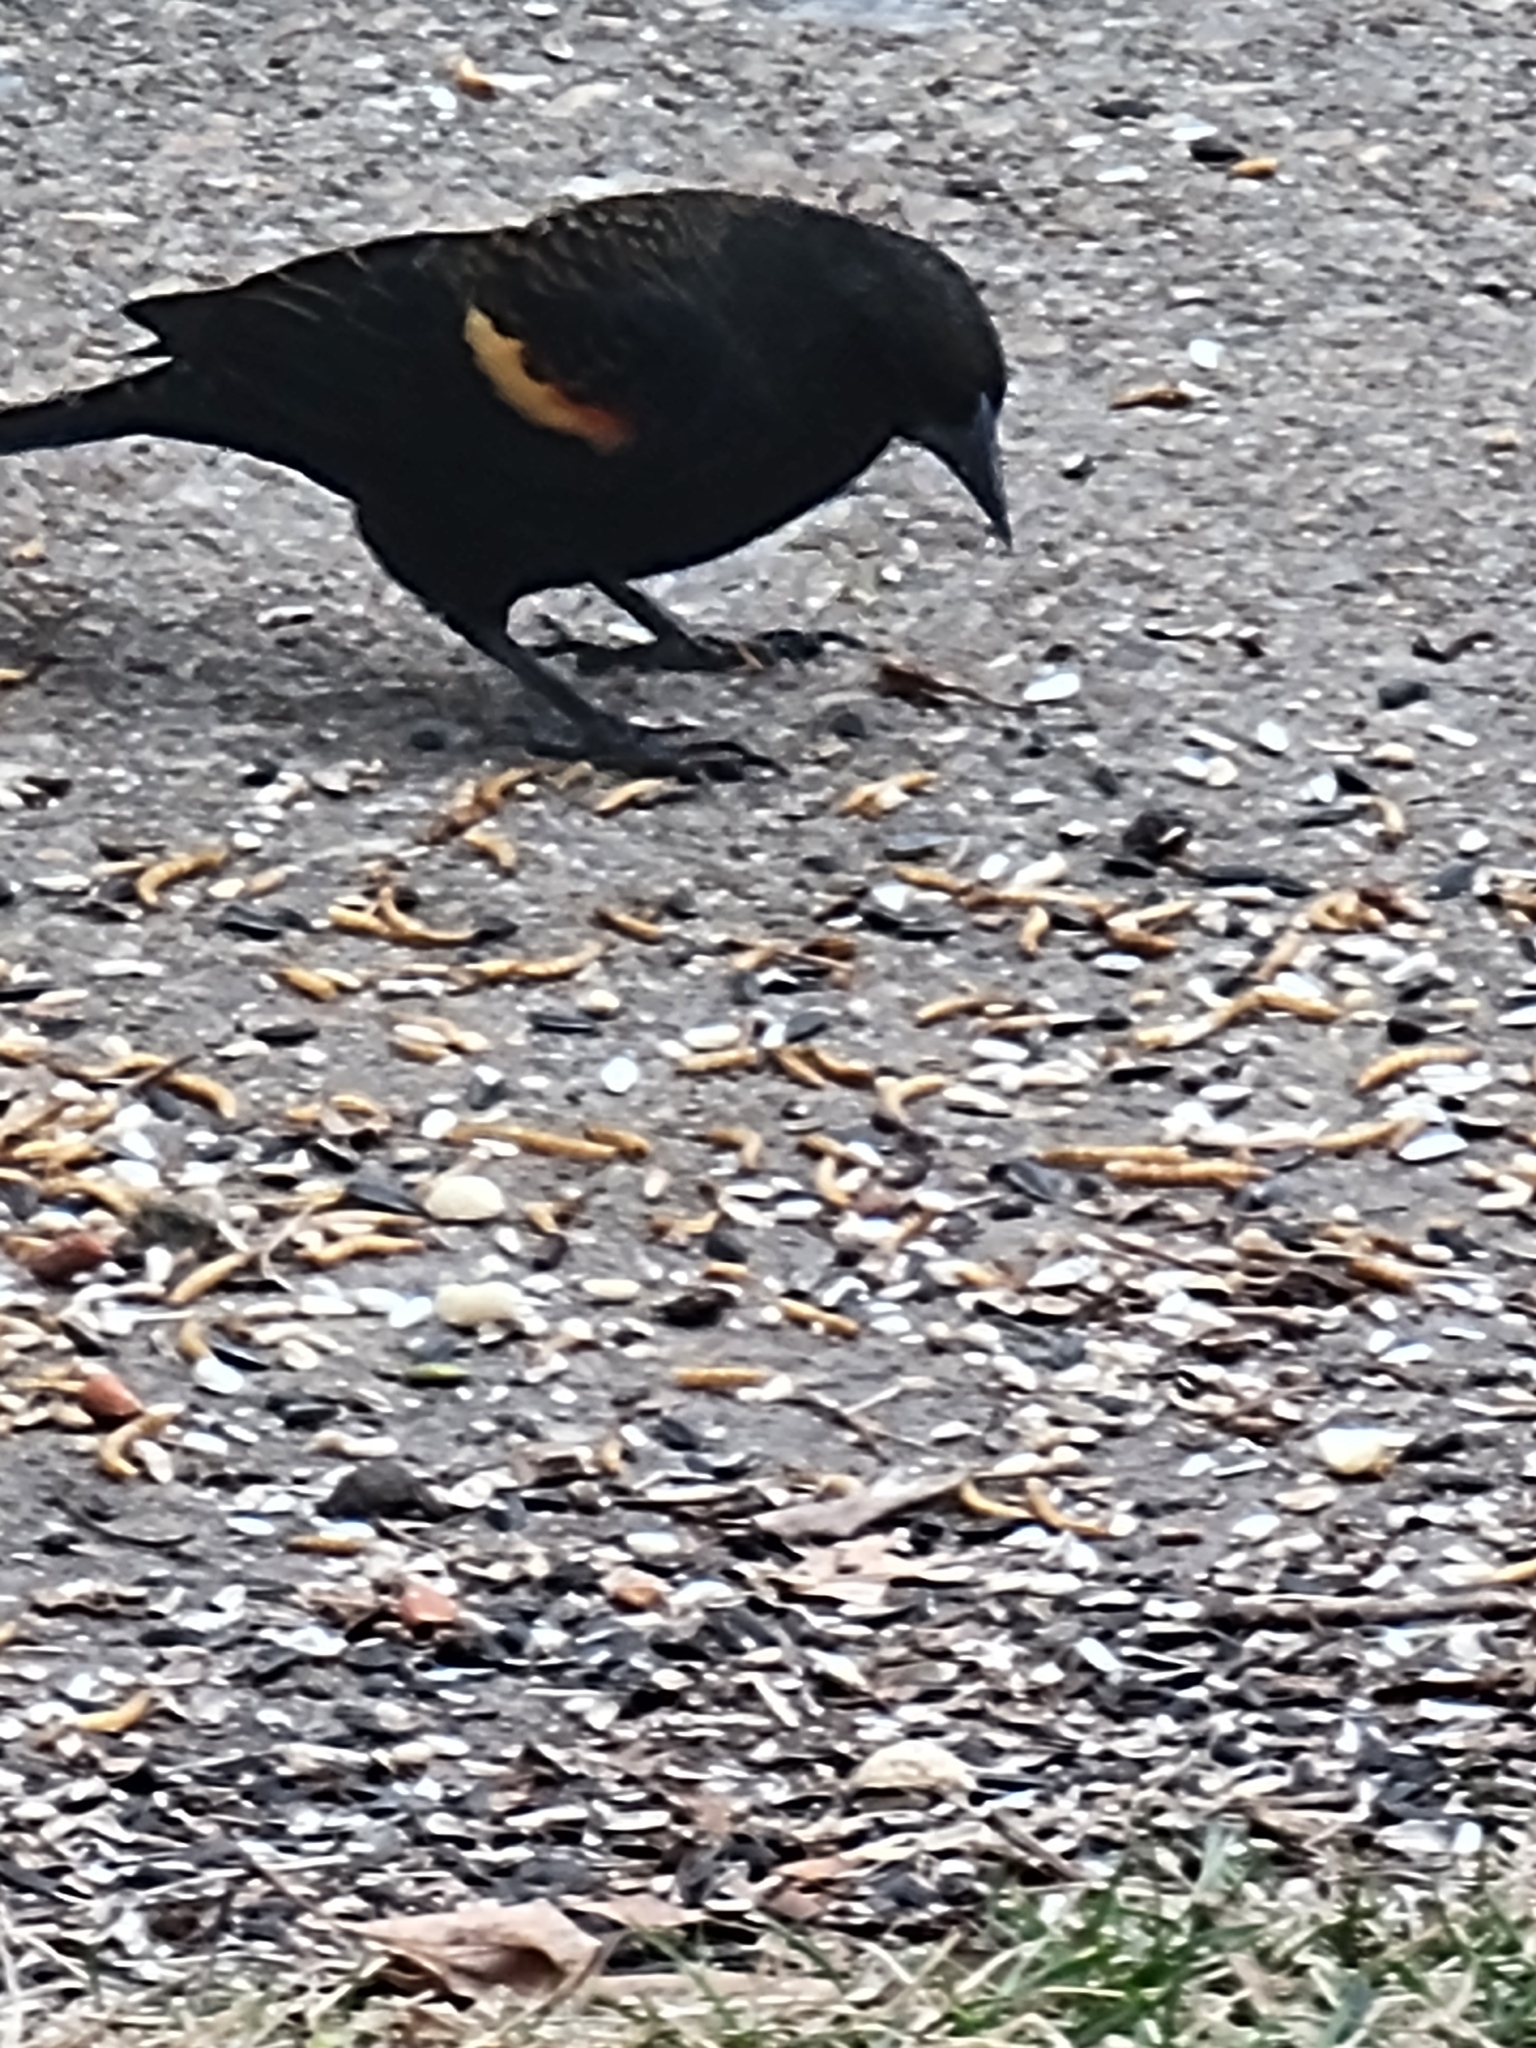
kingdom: Animalia
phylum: Chordata
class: Aves
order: Passeriformes
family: Icteridae
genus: Agelaius
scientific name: Agelaius phoeniceus
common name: Red-winged blackbird
